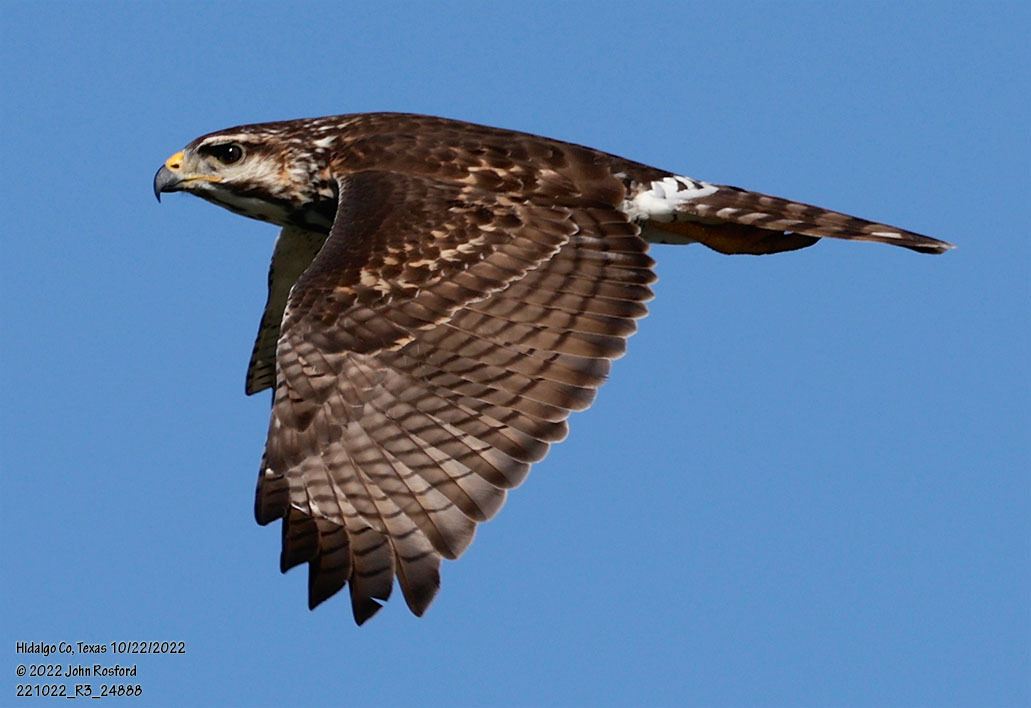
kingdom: Animalia
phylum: Chordata
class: Aves
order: Accipitriformes
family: Accipitridae
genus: Buteo
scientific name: Buteo nitidus
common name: Grey-lined hawk
